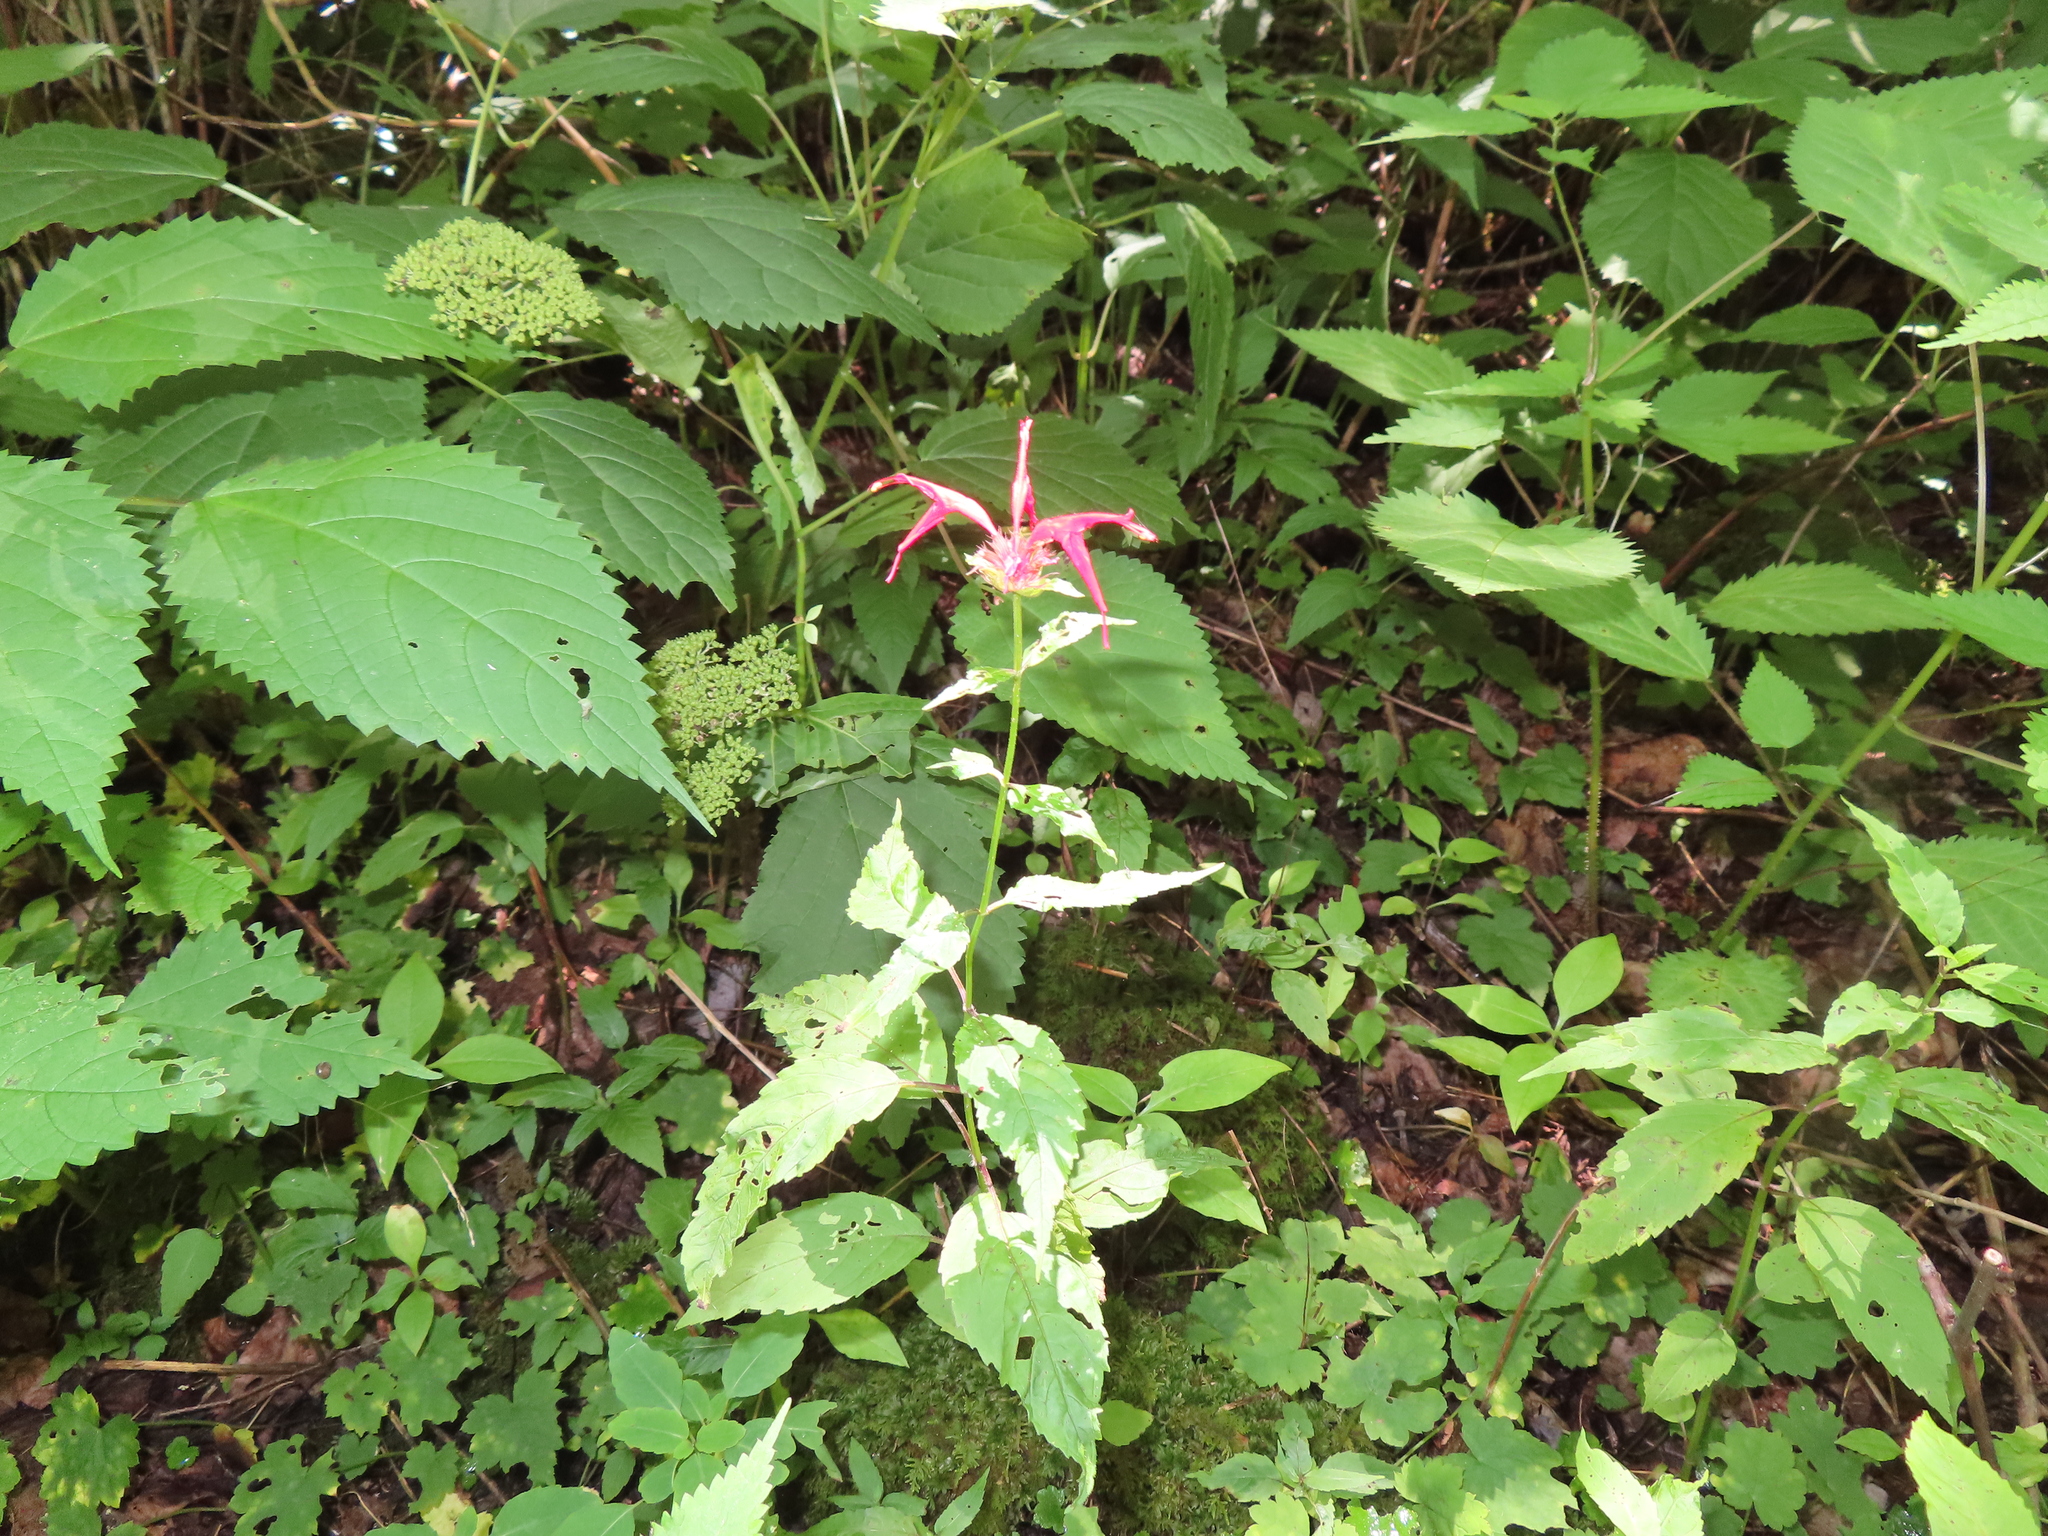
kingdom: Plantae
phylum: Tracheophyta
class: Magnoliopsida
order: Lamiales
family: Lamiaceae
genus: Monarda
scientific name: Monarda didyma
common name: Beebalm
